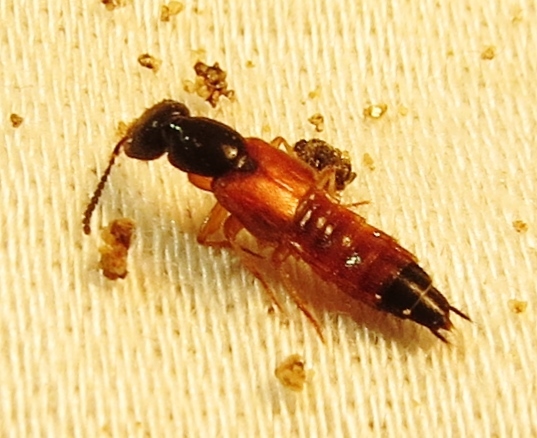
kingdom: Animalia
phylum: Arthropoda
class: Insecta
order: Coleoptera
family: Staphylinidae
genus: Belonuchus
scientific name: Belonuchus rufipennis
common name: Large rove beetle
